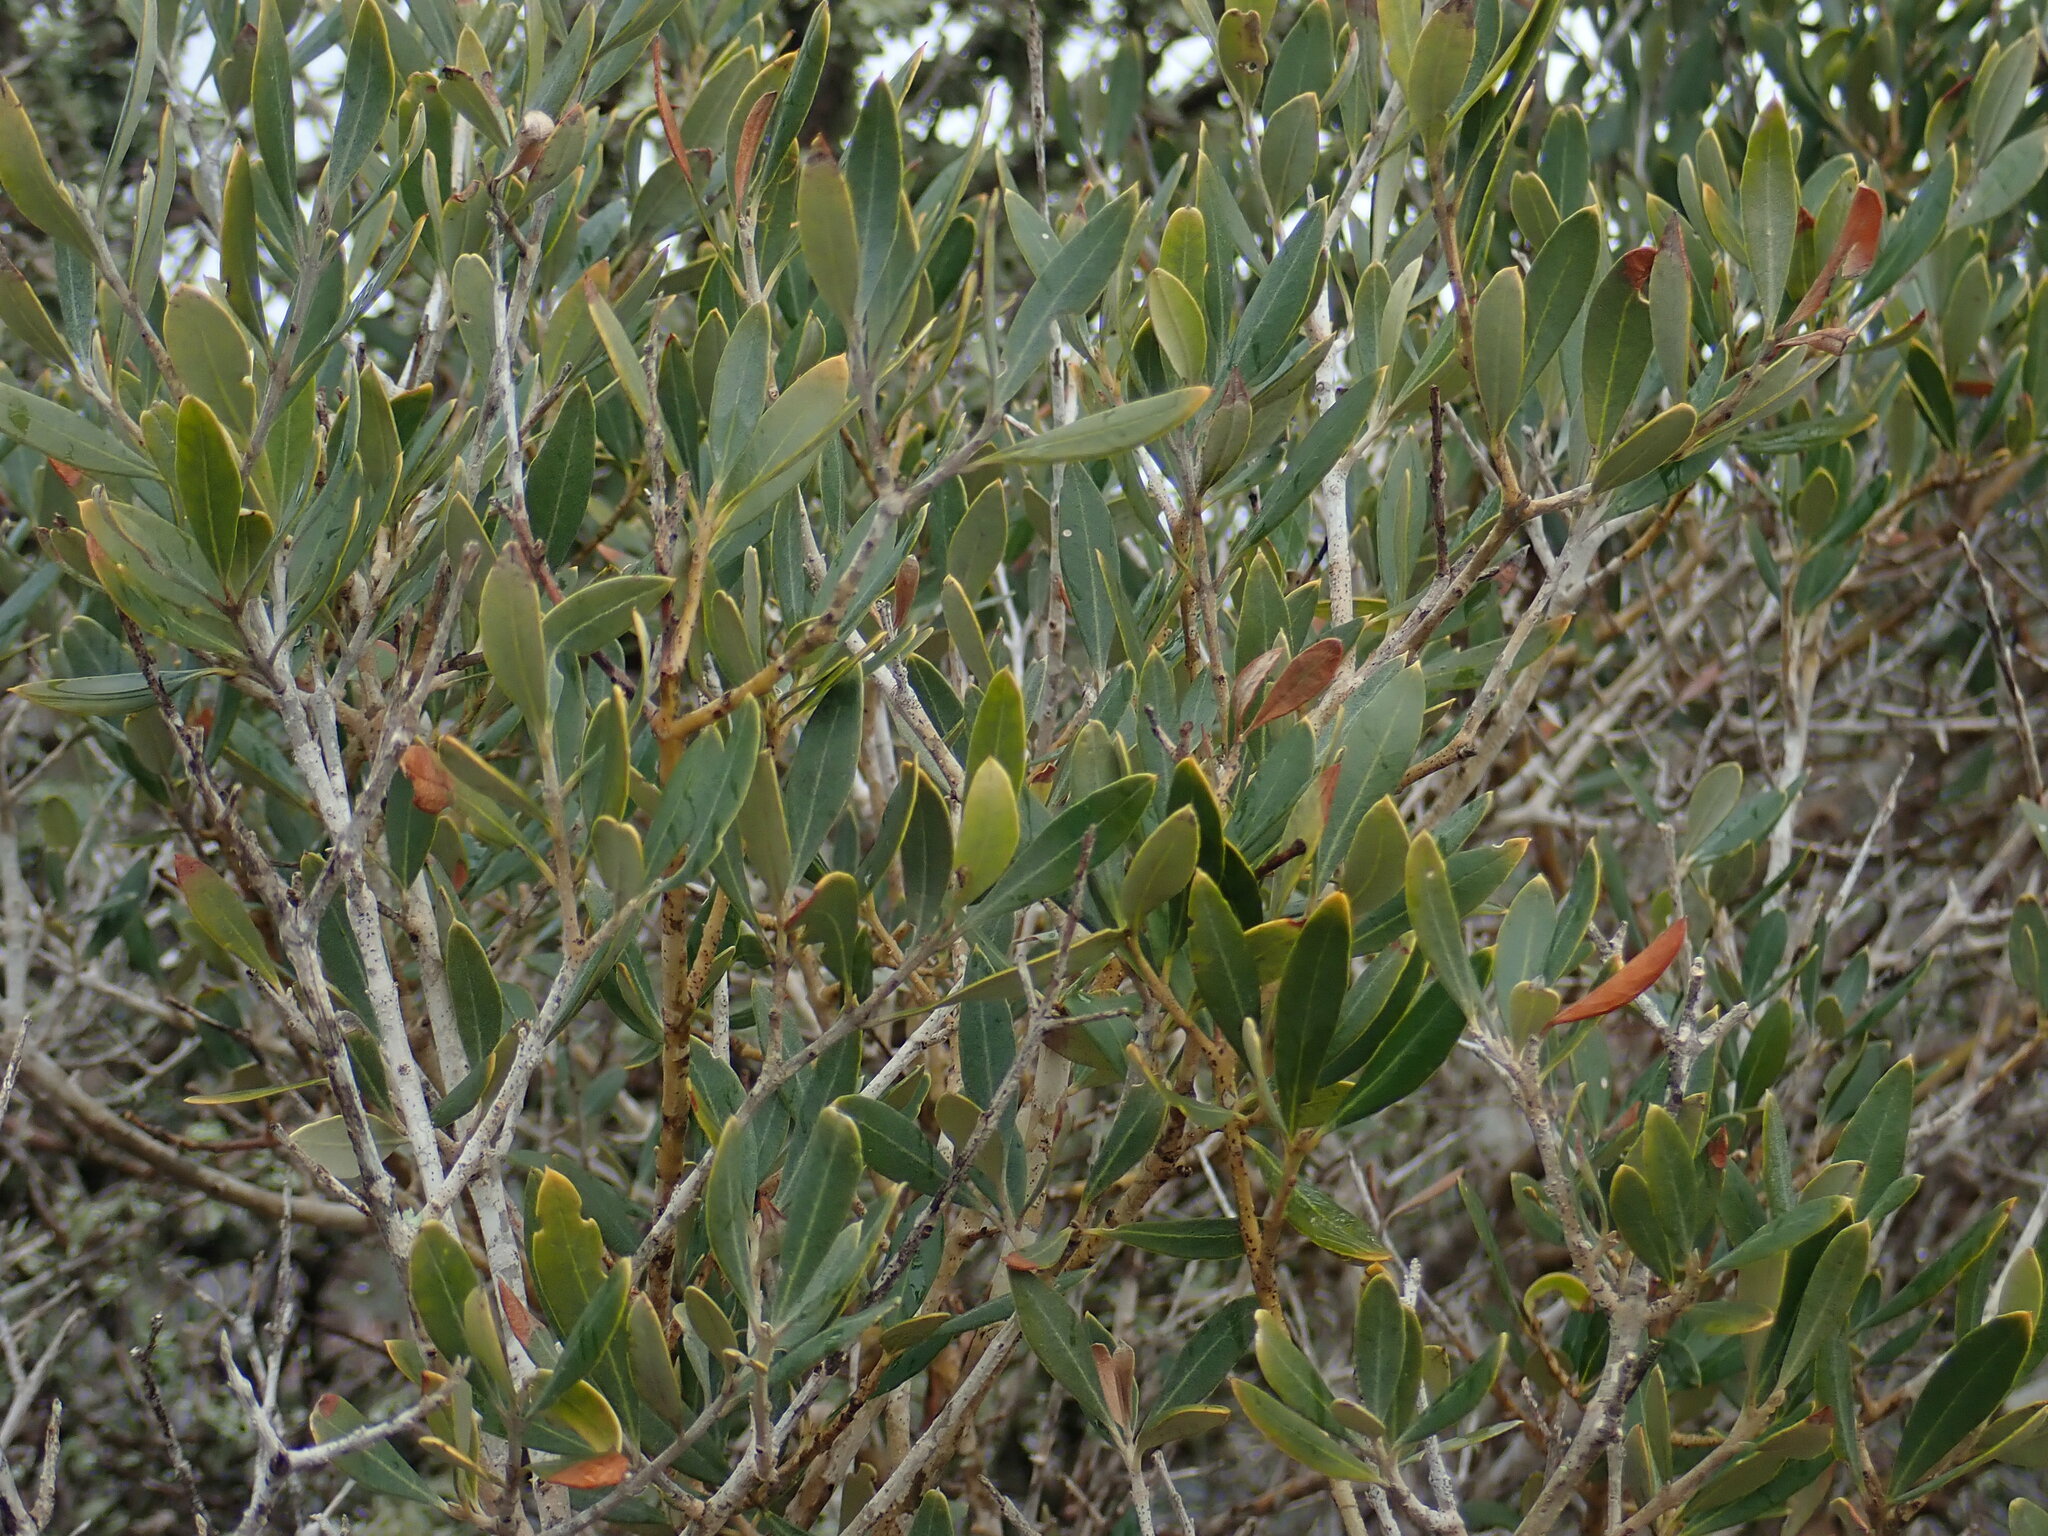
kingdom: Plantae
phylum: Tracheophyta
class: Magnoliopsida
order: Lamiales
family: Oleaceae
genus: Olea
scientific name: Olea europaea
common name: Olive
